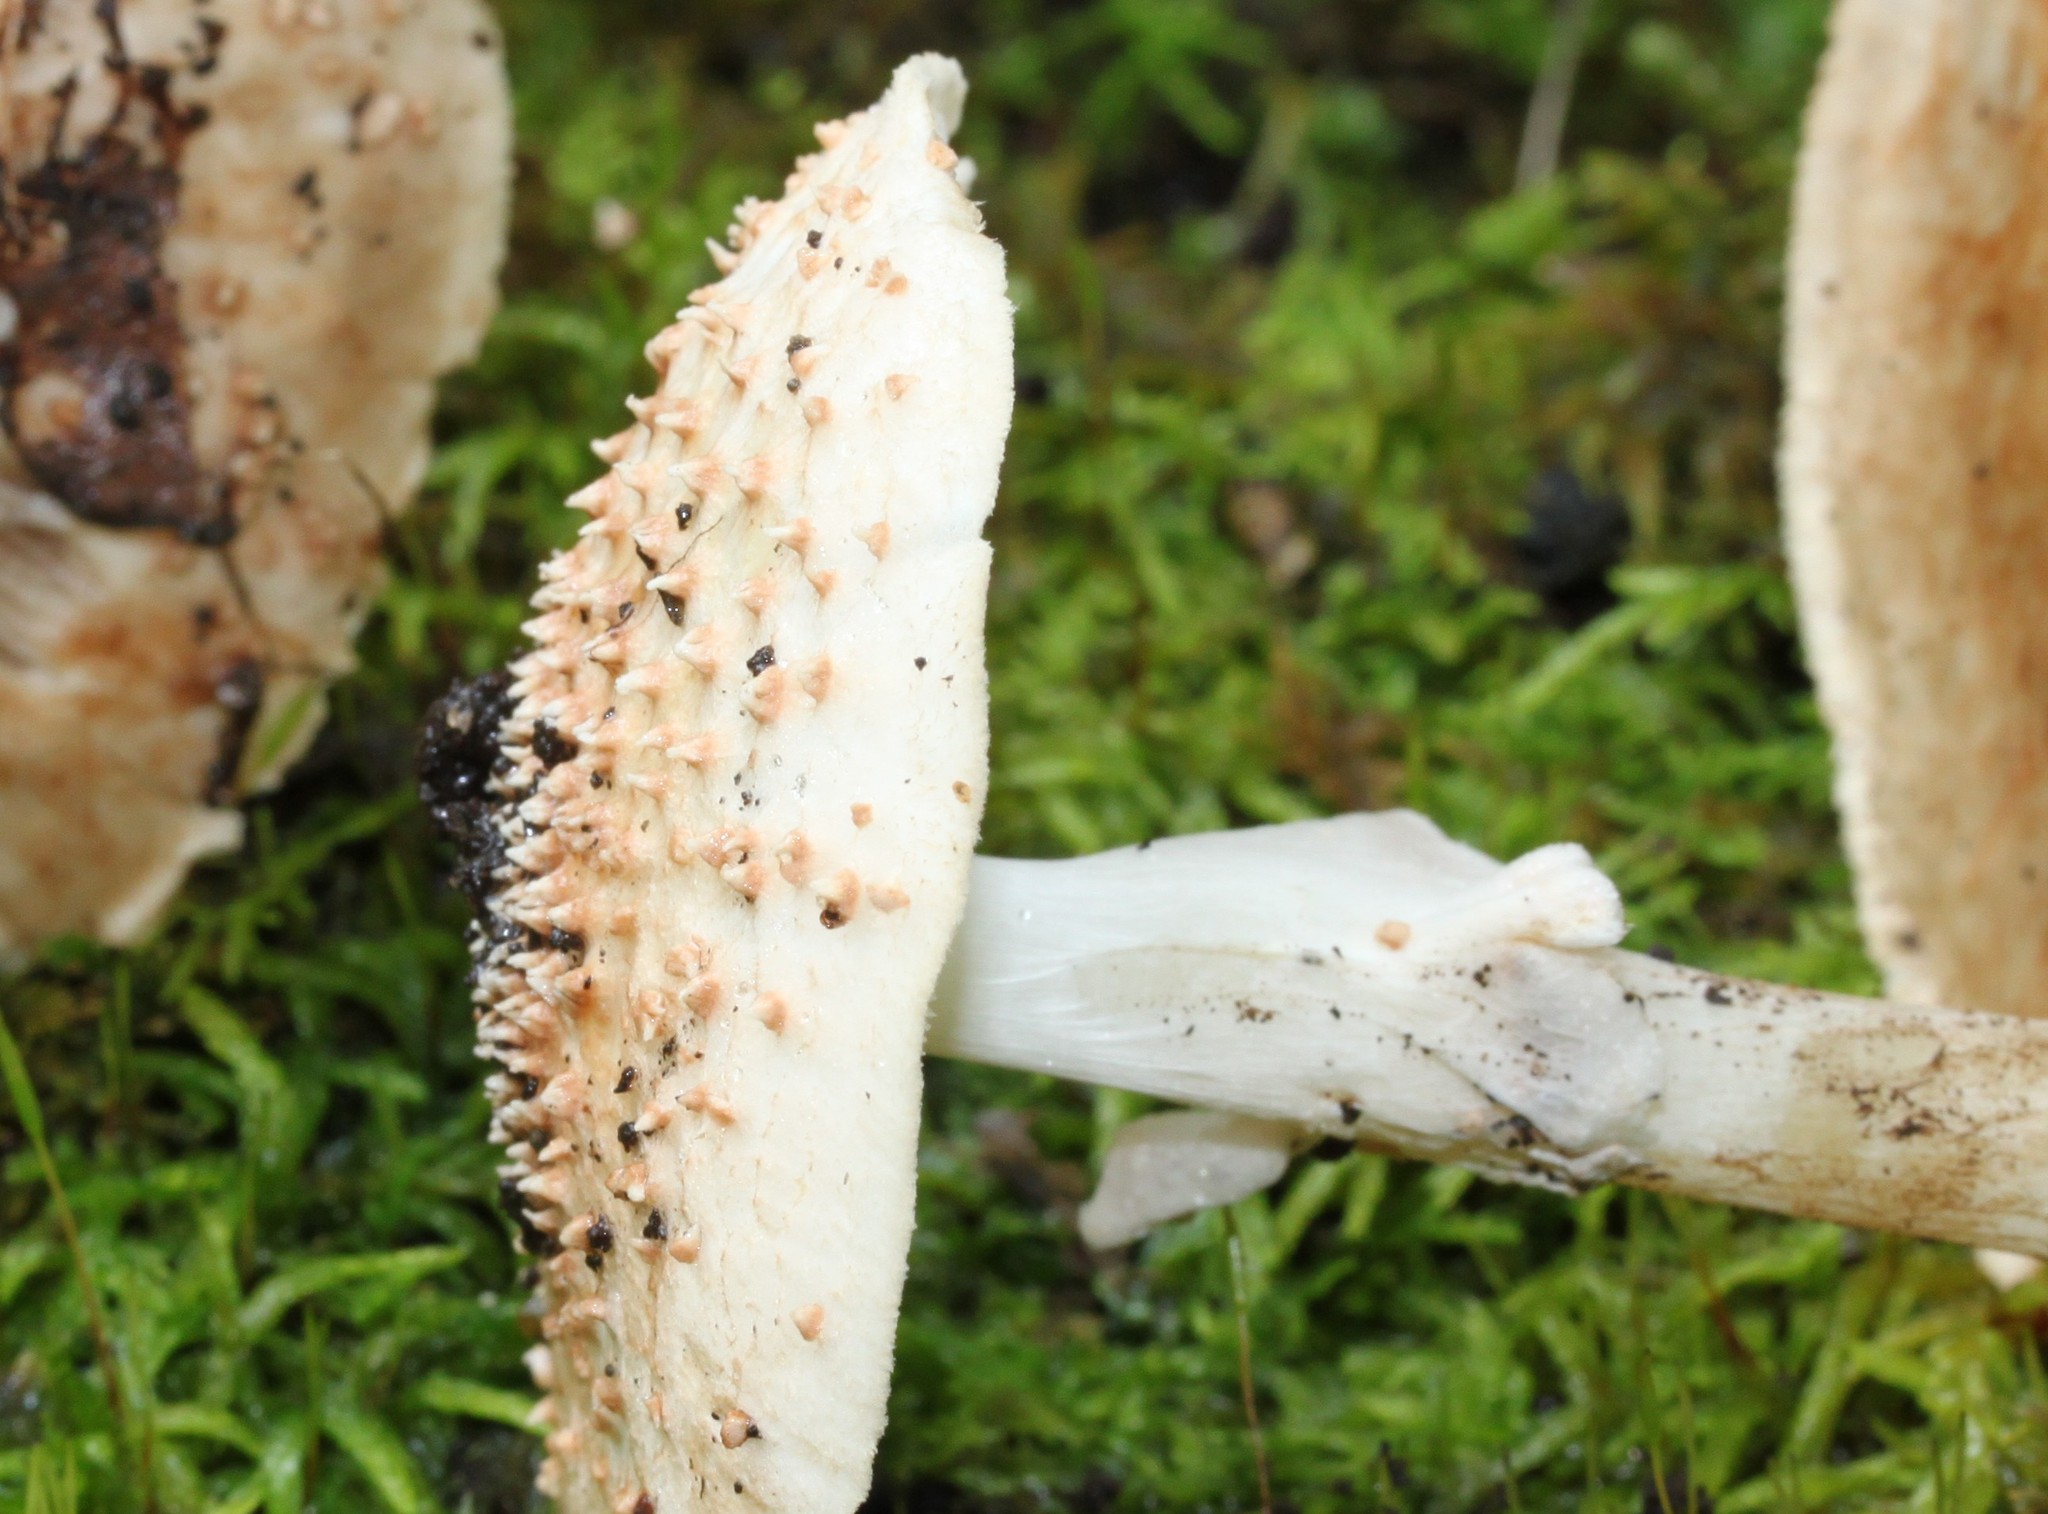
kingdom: Fungi
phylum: Basidiomycota
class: Agaricomycetes
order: Agaricales
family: Agaricaceae
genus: Echinoderma
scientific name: Echinoderma asperum
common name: Freckled dapperling
